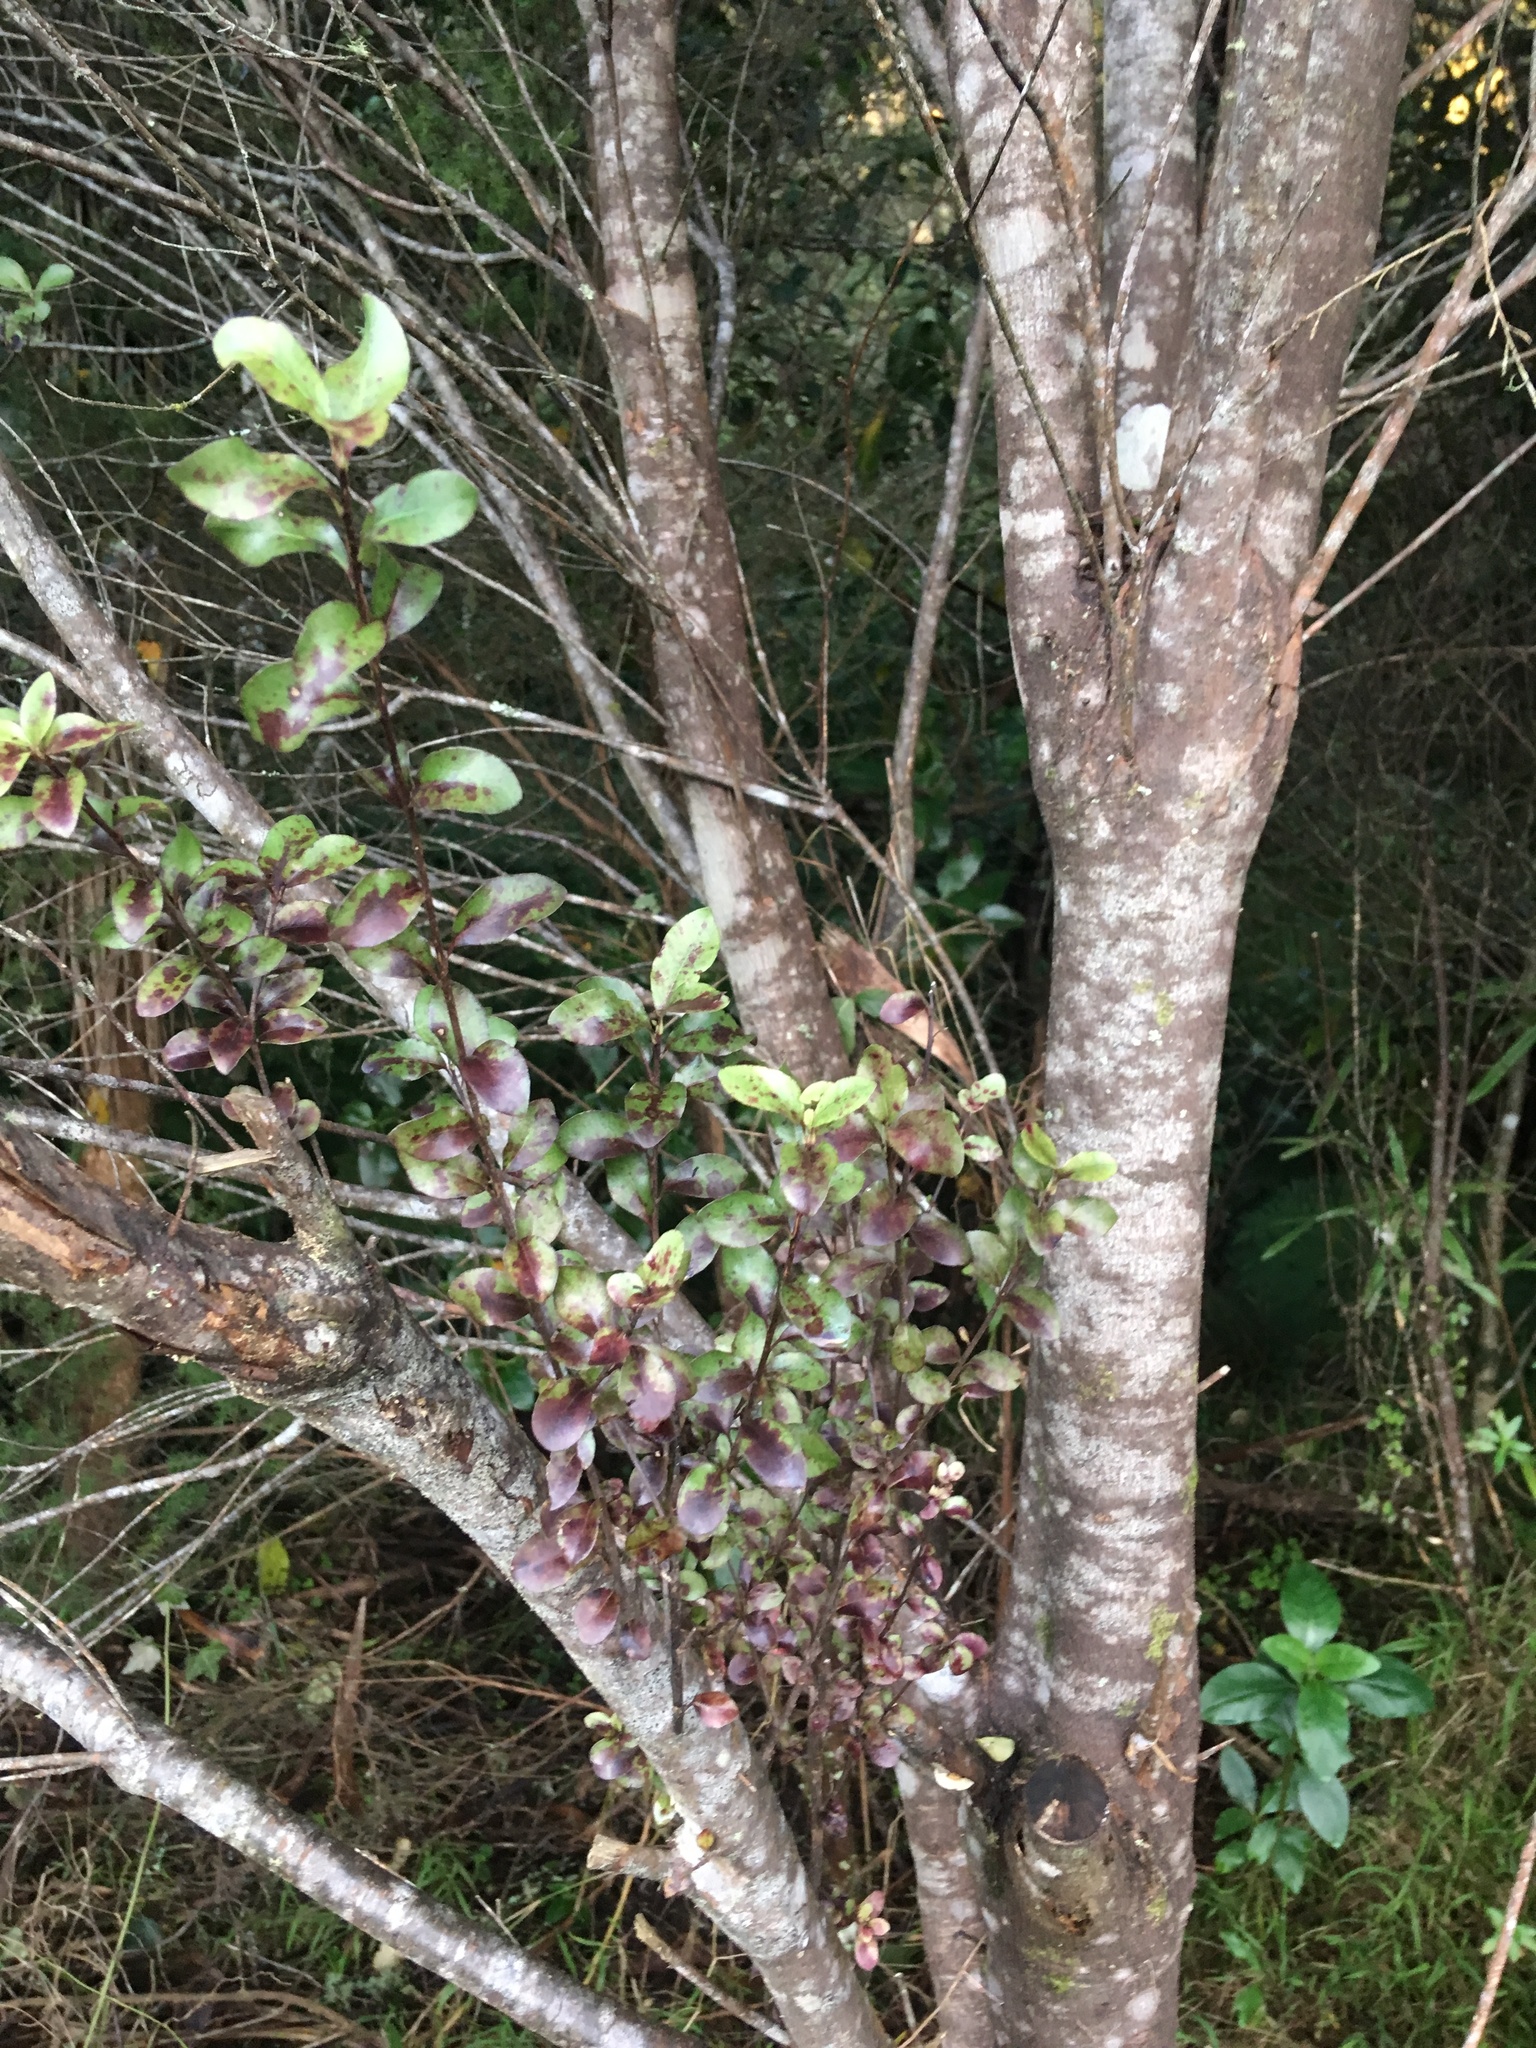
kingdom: Plantae
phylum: Tracheophyta
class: Magnoliopsida
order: Apiales
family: Pittosporaceae
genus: Pittosporum
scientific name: Pittosporum tenuifolium
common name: Kohuhu
